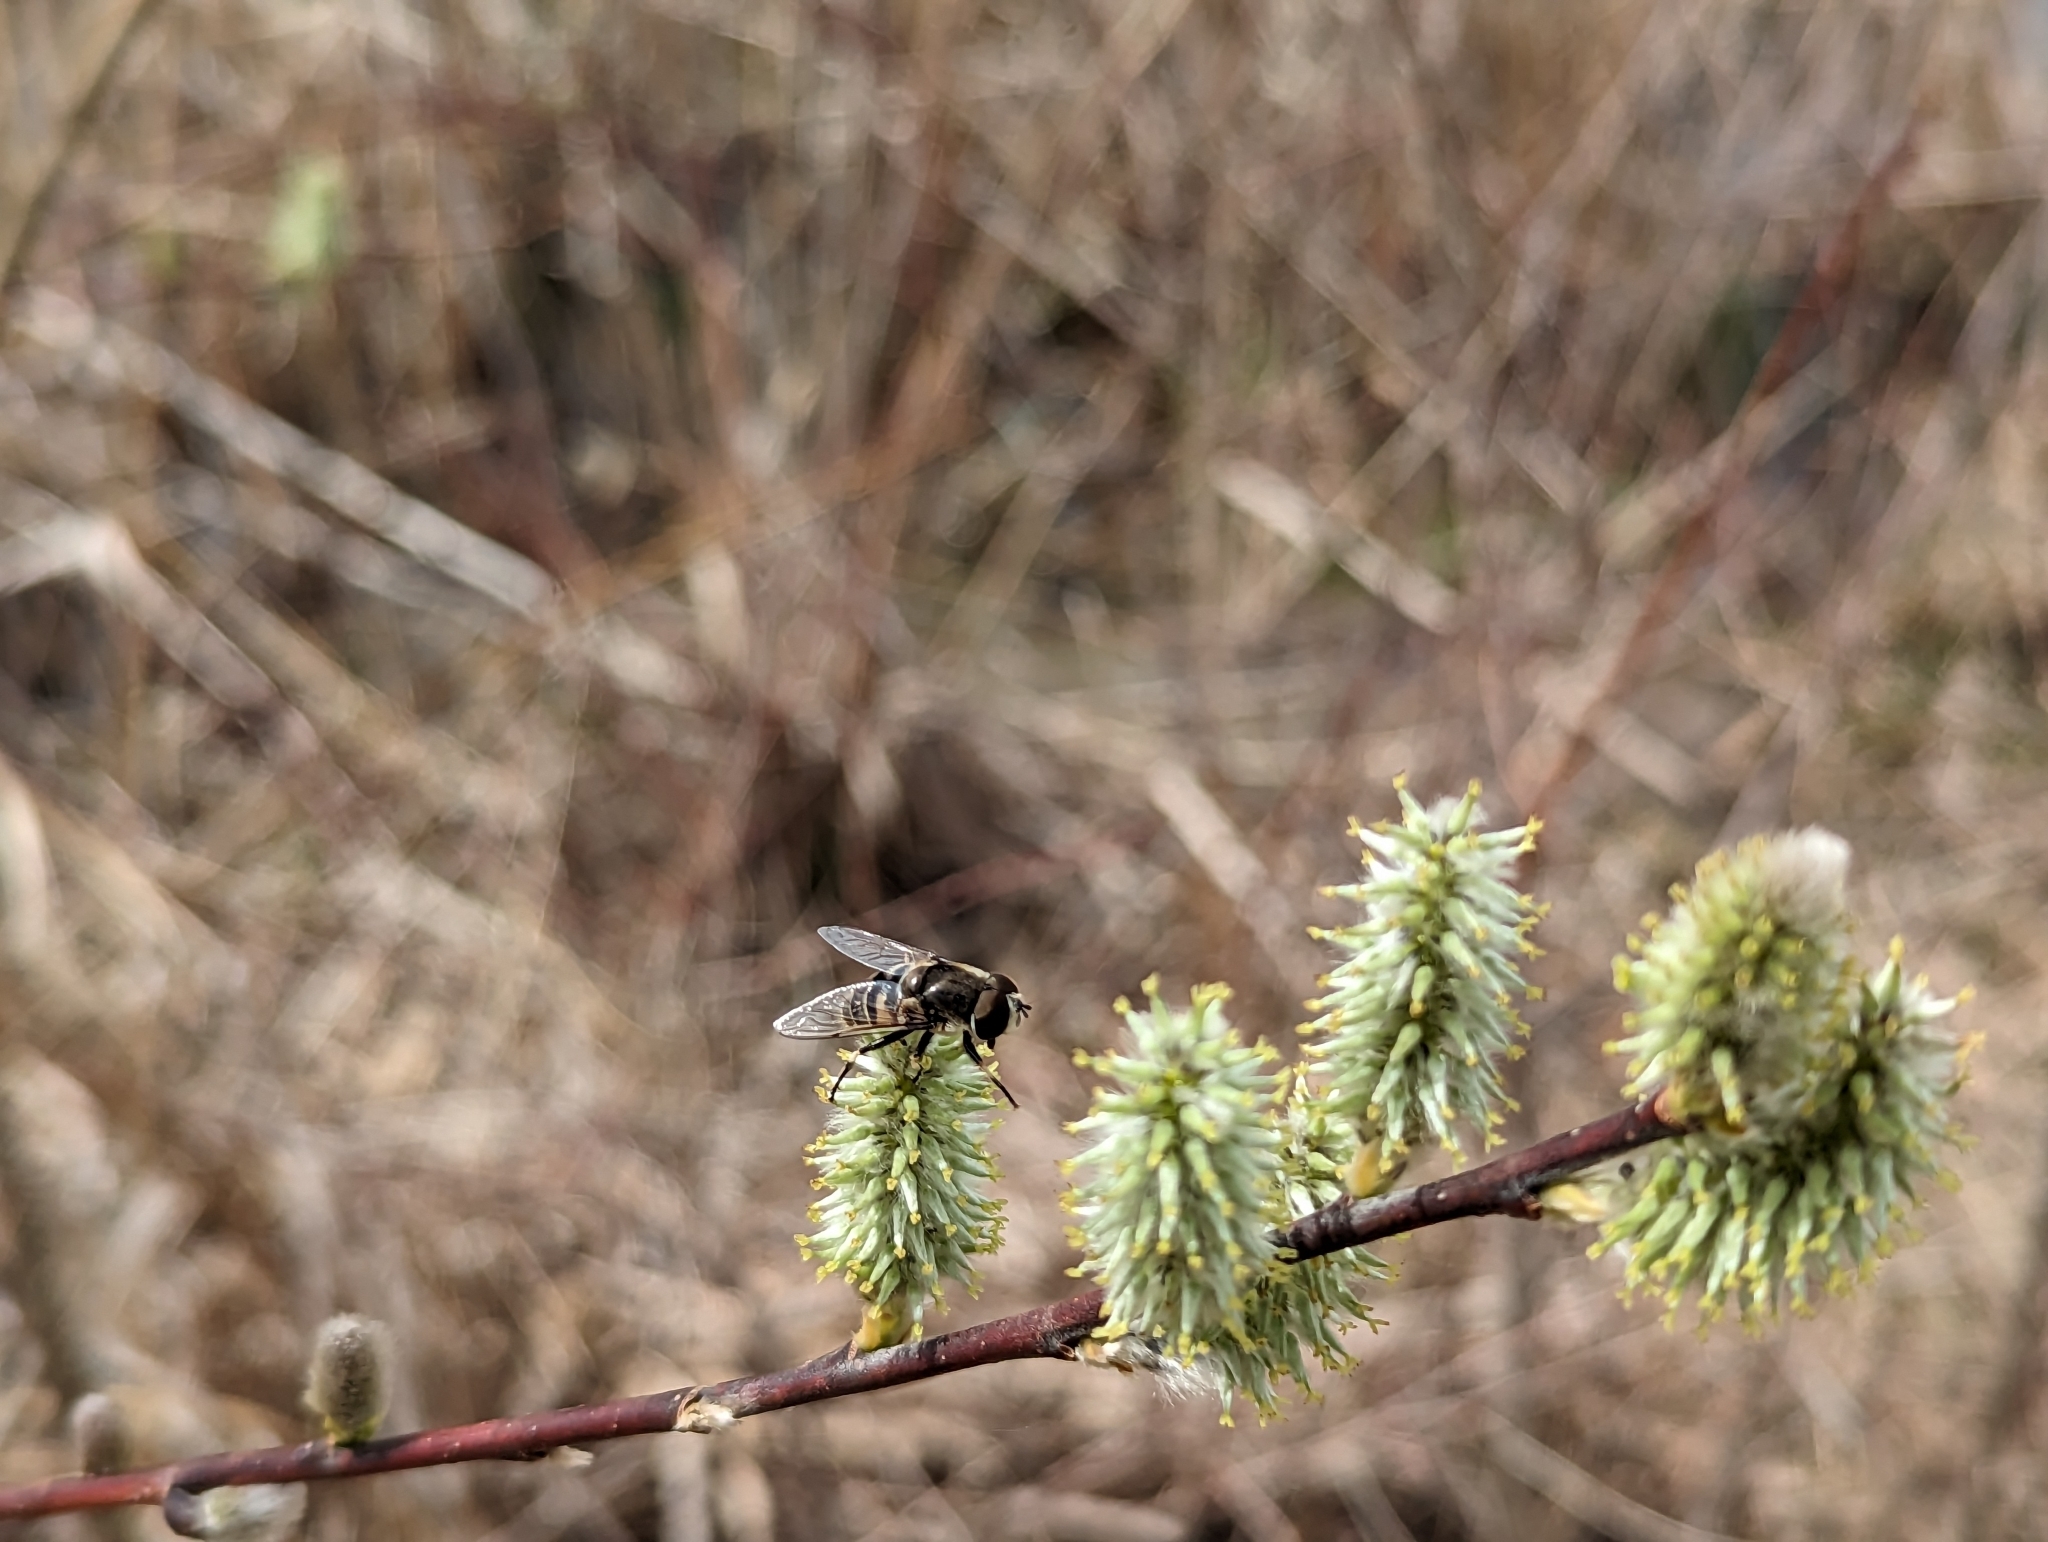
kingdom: Animalia
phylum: Arthropoda
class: Insecta
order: Diptera
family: Syrphidae
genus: Eristalis
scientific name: Eristalis dimidiata
